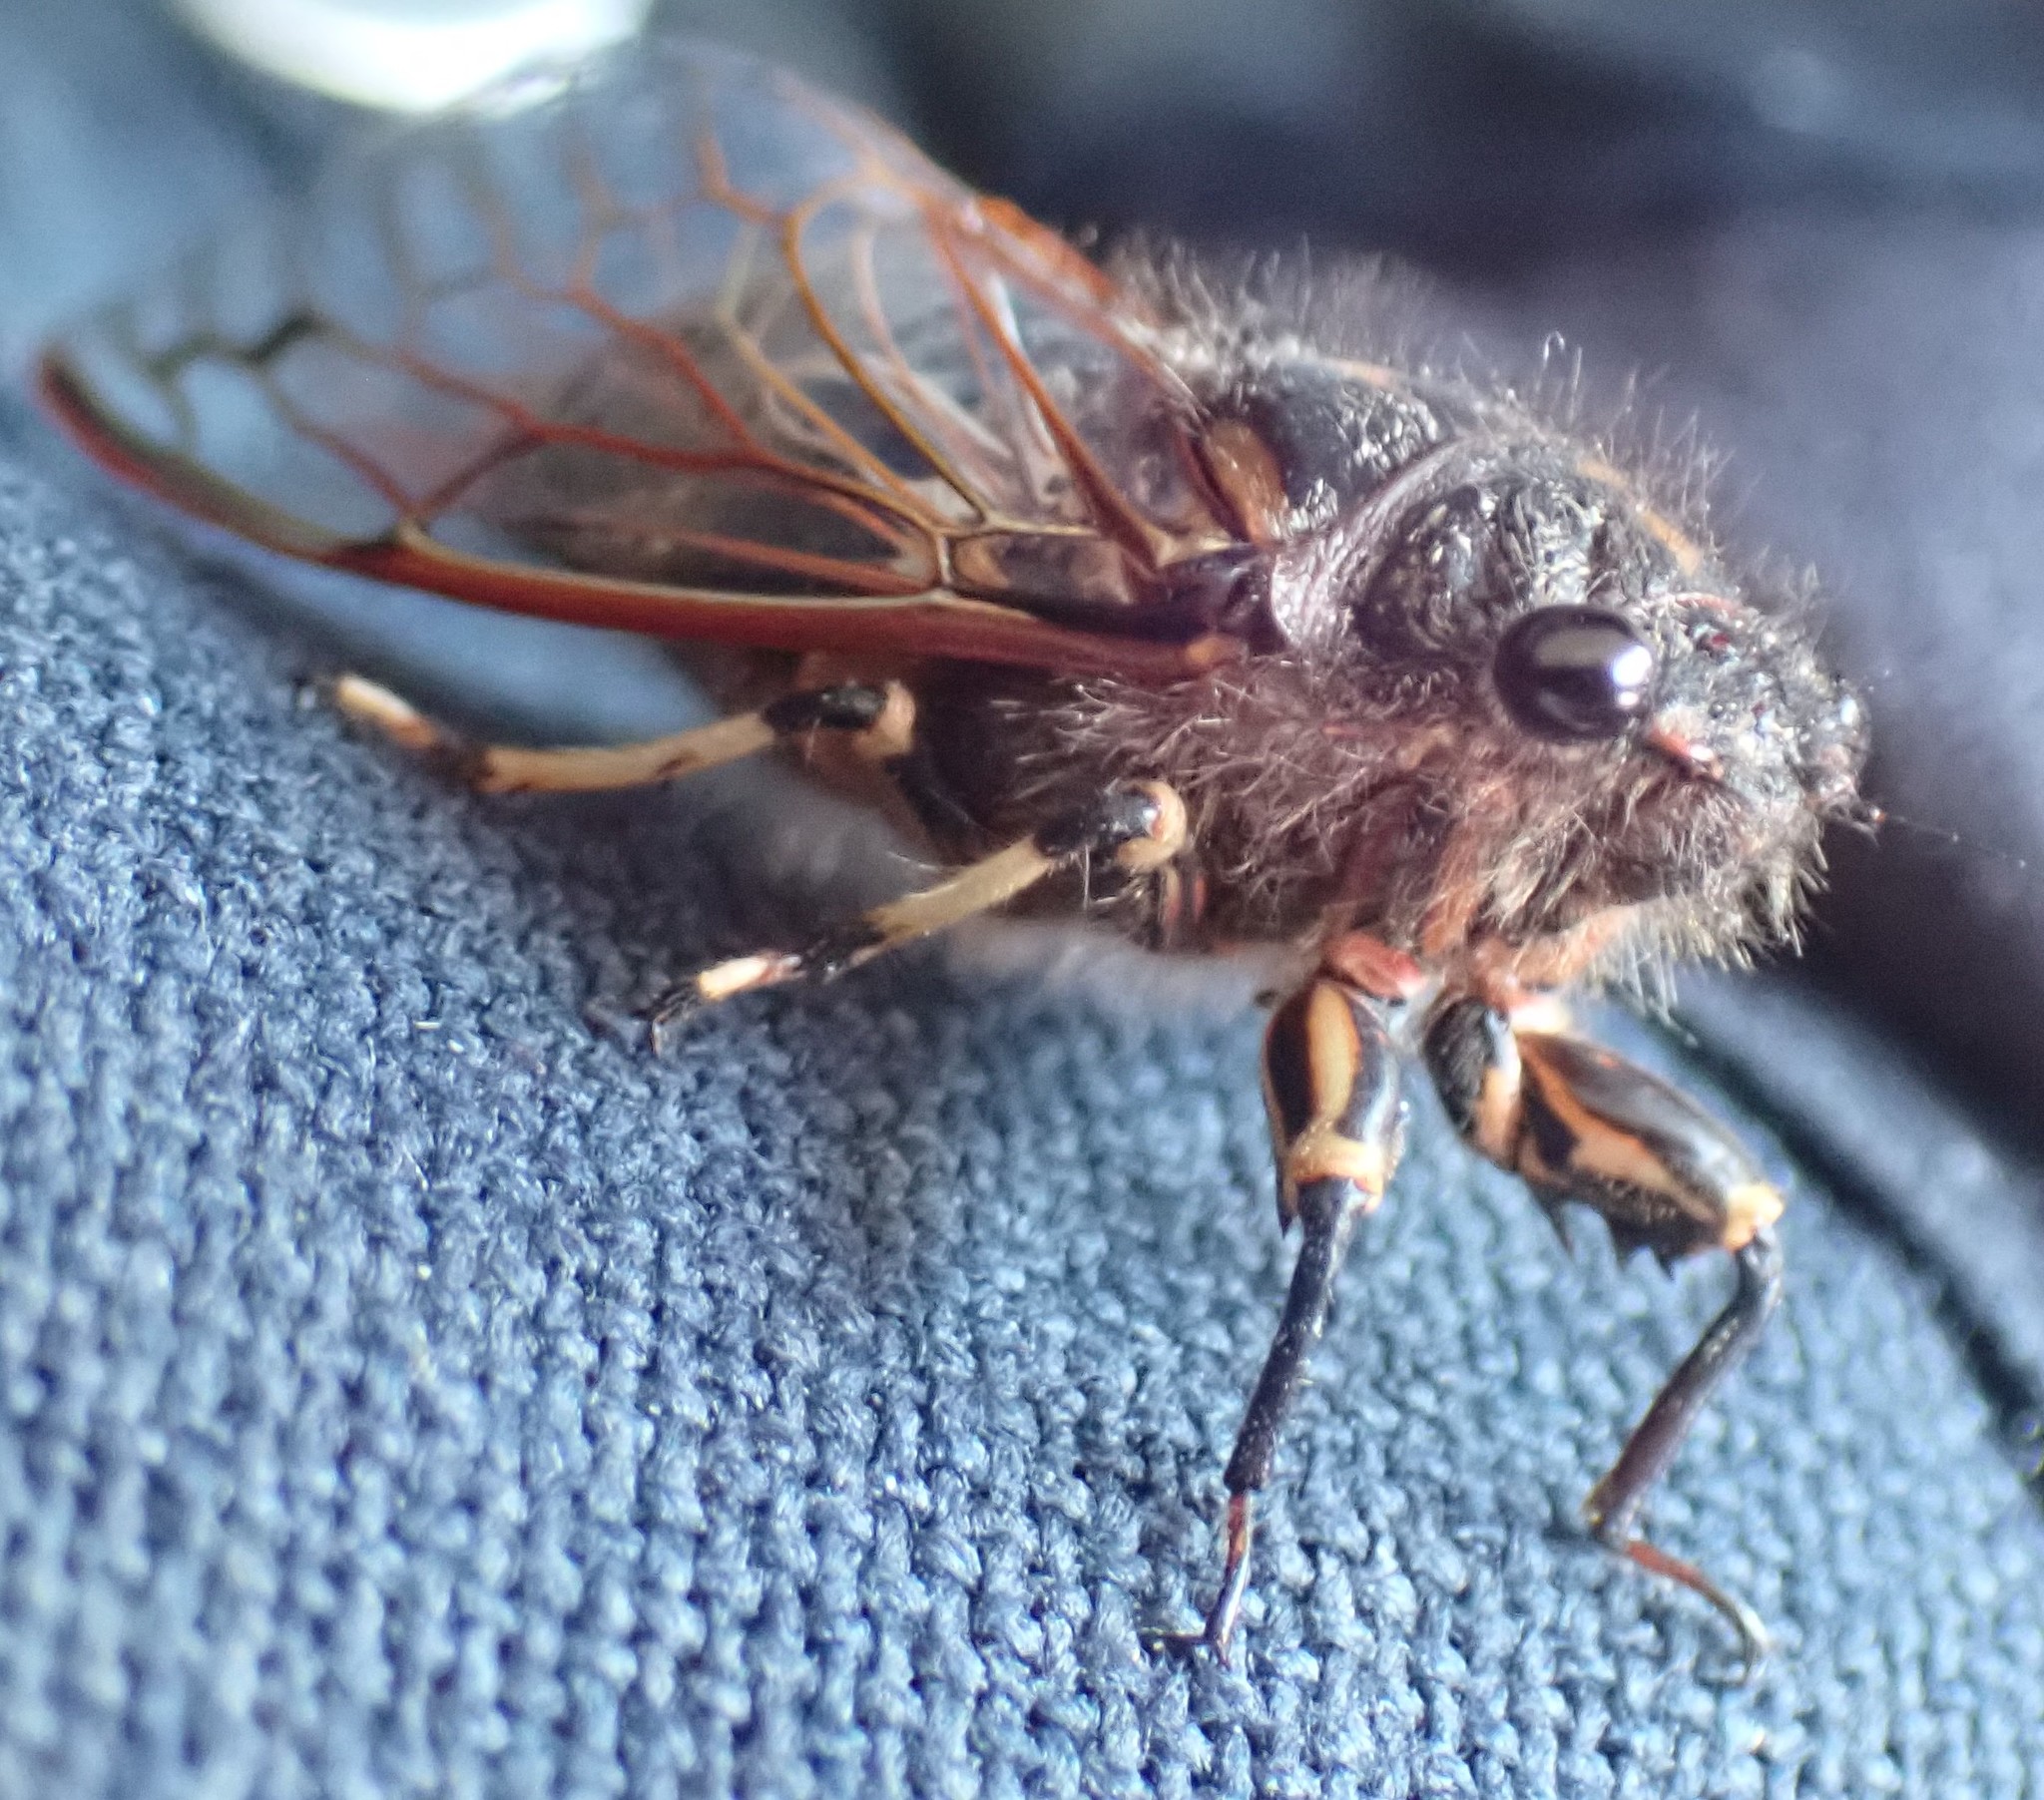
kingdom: Animalia
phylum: Arthropoda
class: Insecta
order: Hemiptera
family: Cicadidae
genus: Diemeniana
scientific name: Diemeniana cincta
